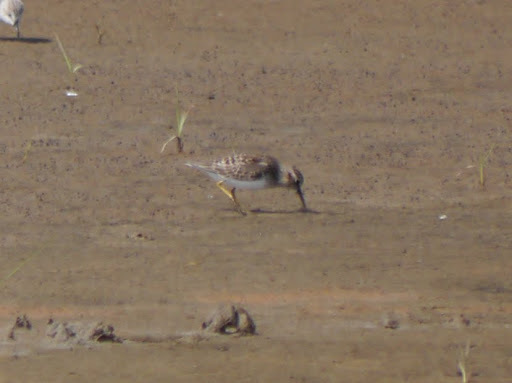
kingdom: Animalia
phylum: Chordata
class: Aves
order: Charadriiformes
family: Scolopacidae
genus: Calidris
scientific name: Calidris minutilla
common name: Least sandpiper
